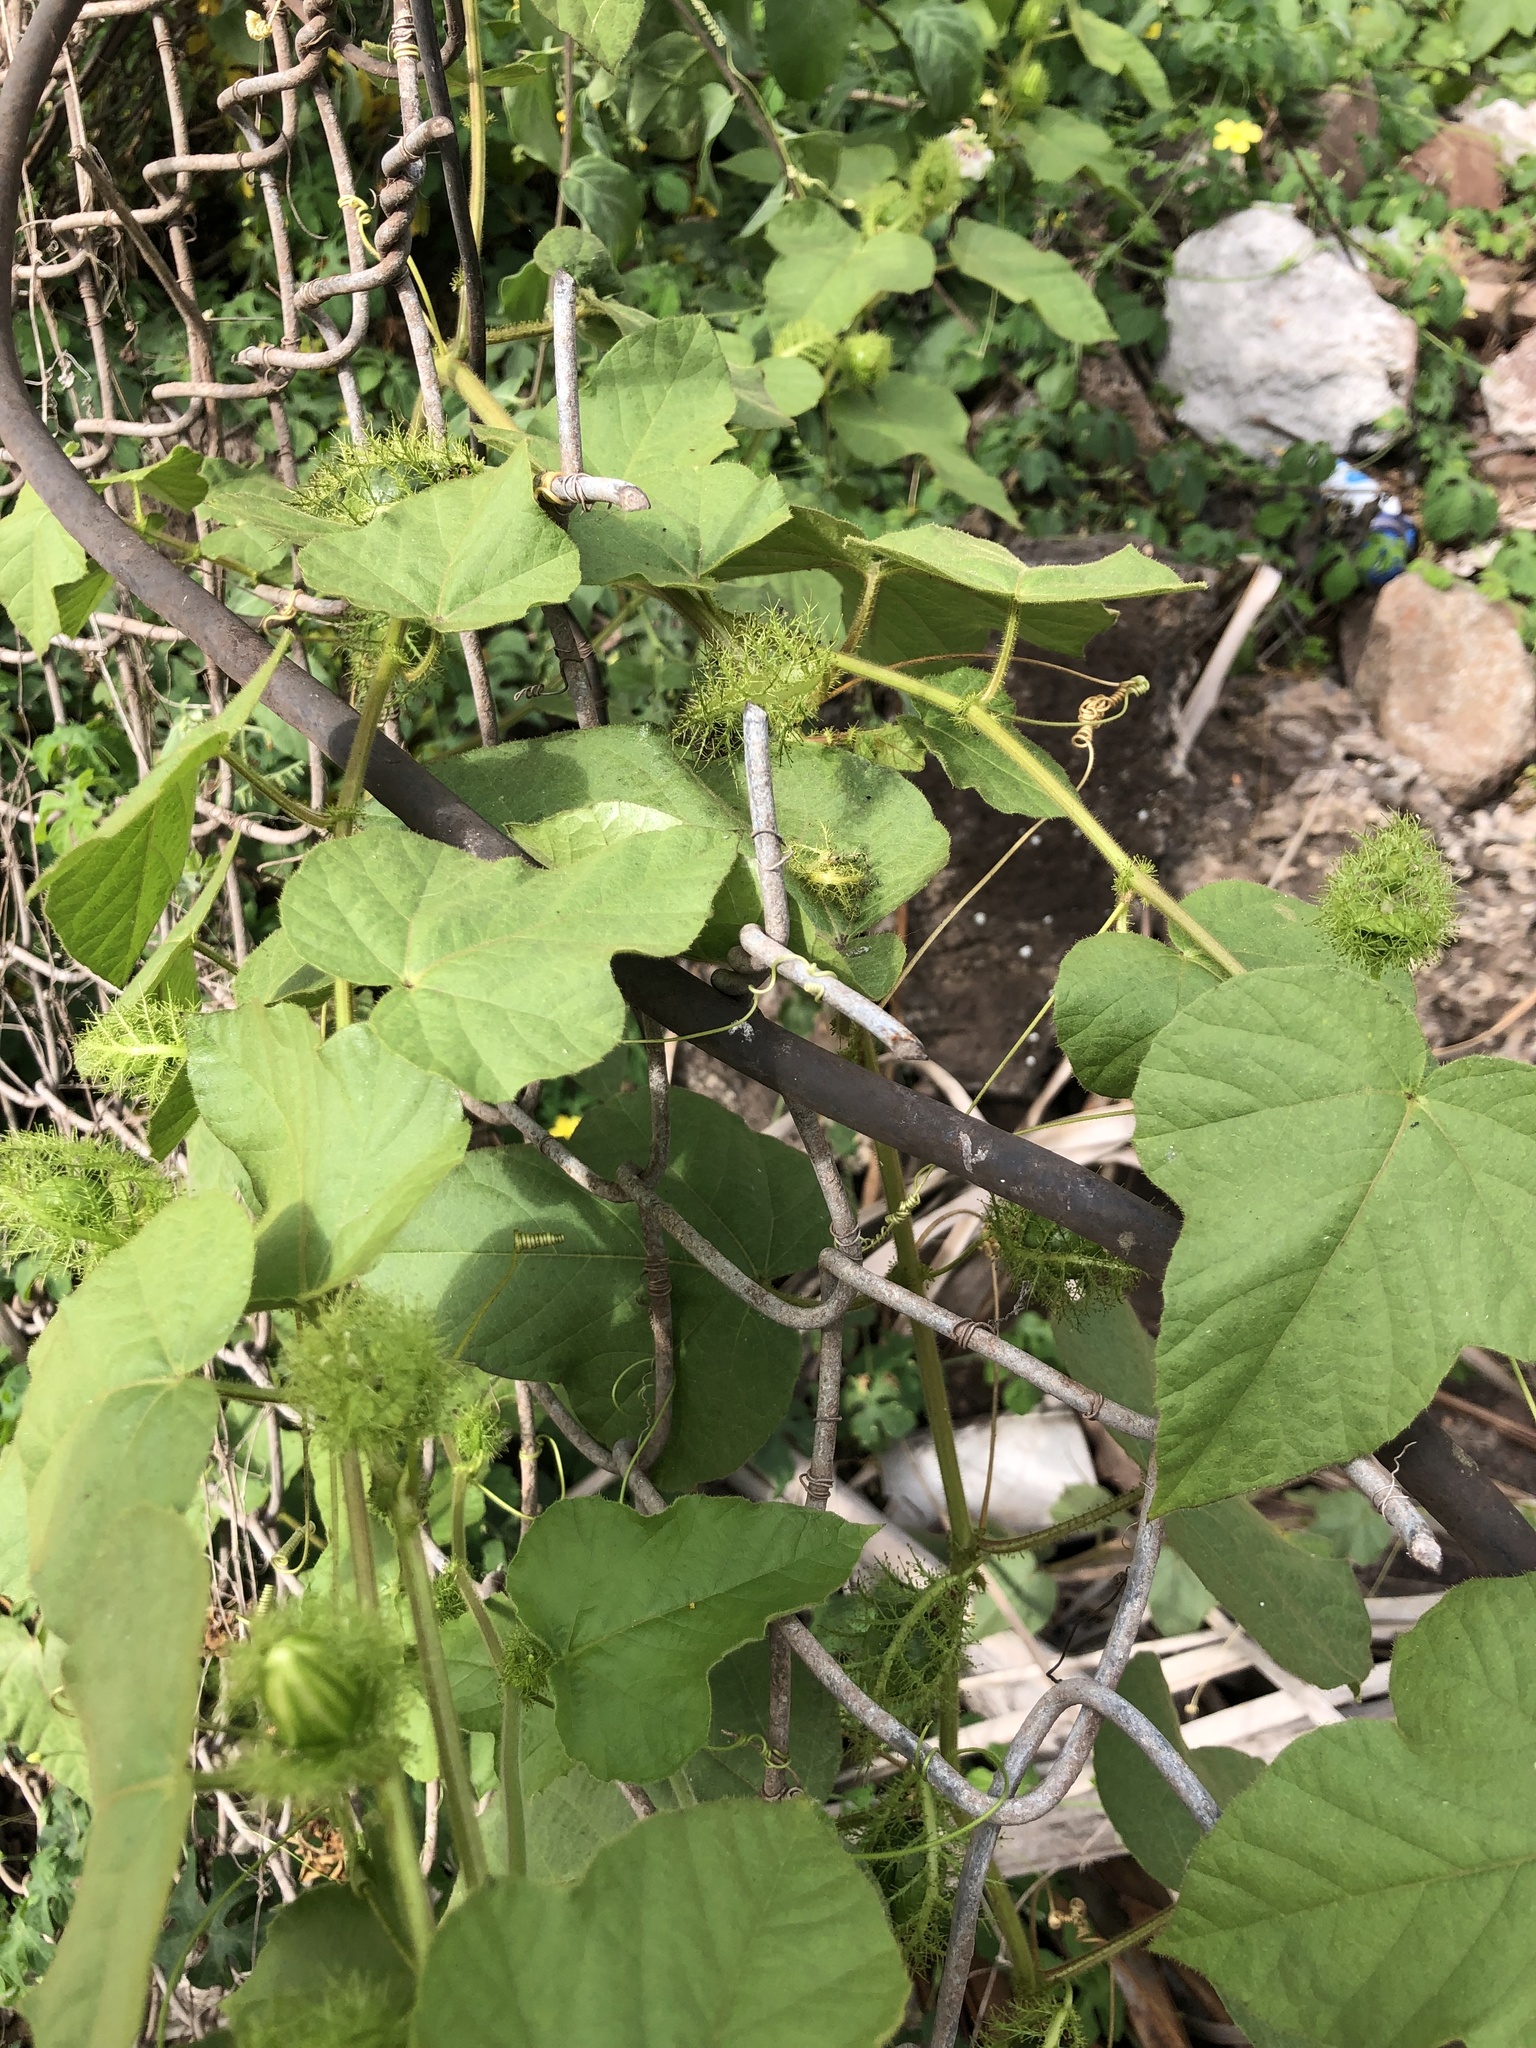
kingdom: Plantae
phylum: Tracheophyta
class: Magnoliopsida
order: Malpighiales
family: Passifloraceae
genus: Passiflora
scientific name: Passiflora vesicaria
